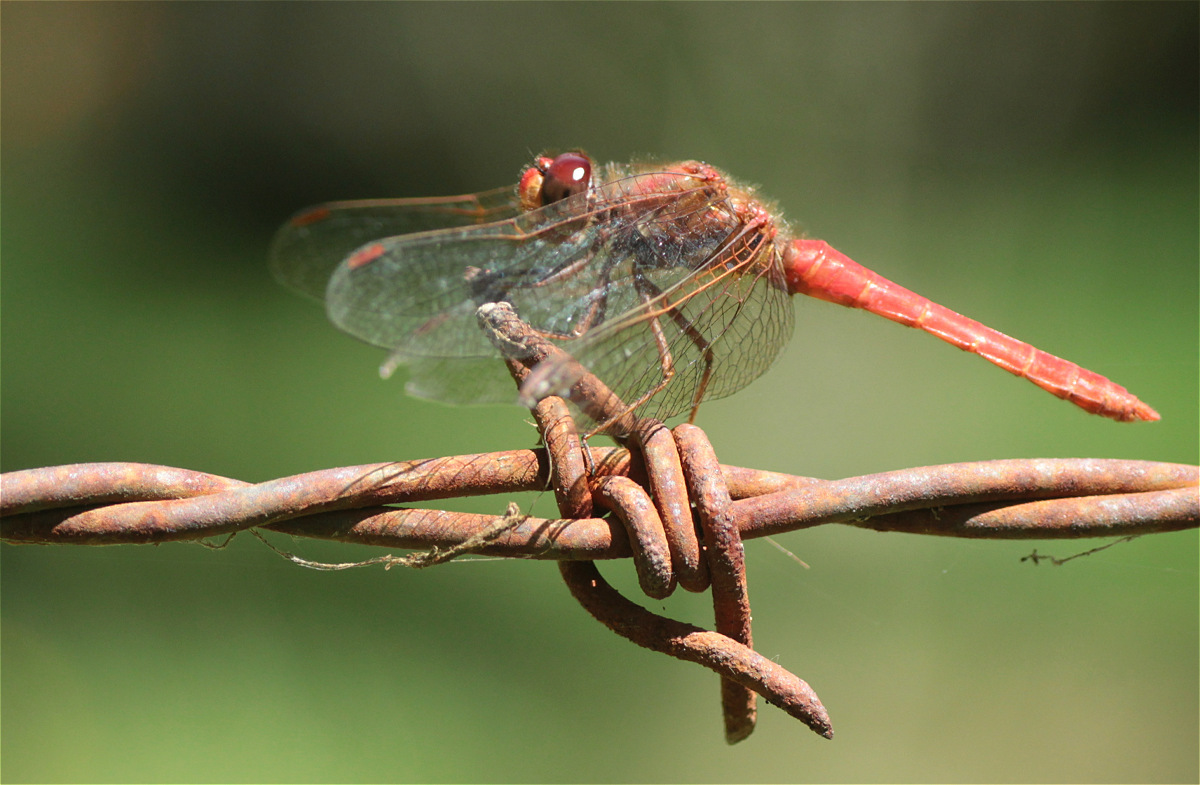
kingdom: Animalia
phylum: Arthropoda
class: Insecta
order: Odonata
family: Libellulidae
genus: Sympetrum
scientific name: Sympetrum gilvum
